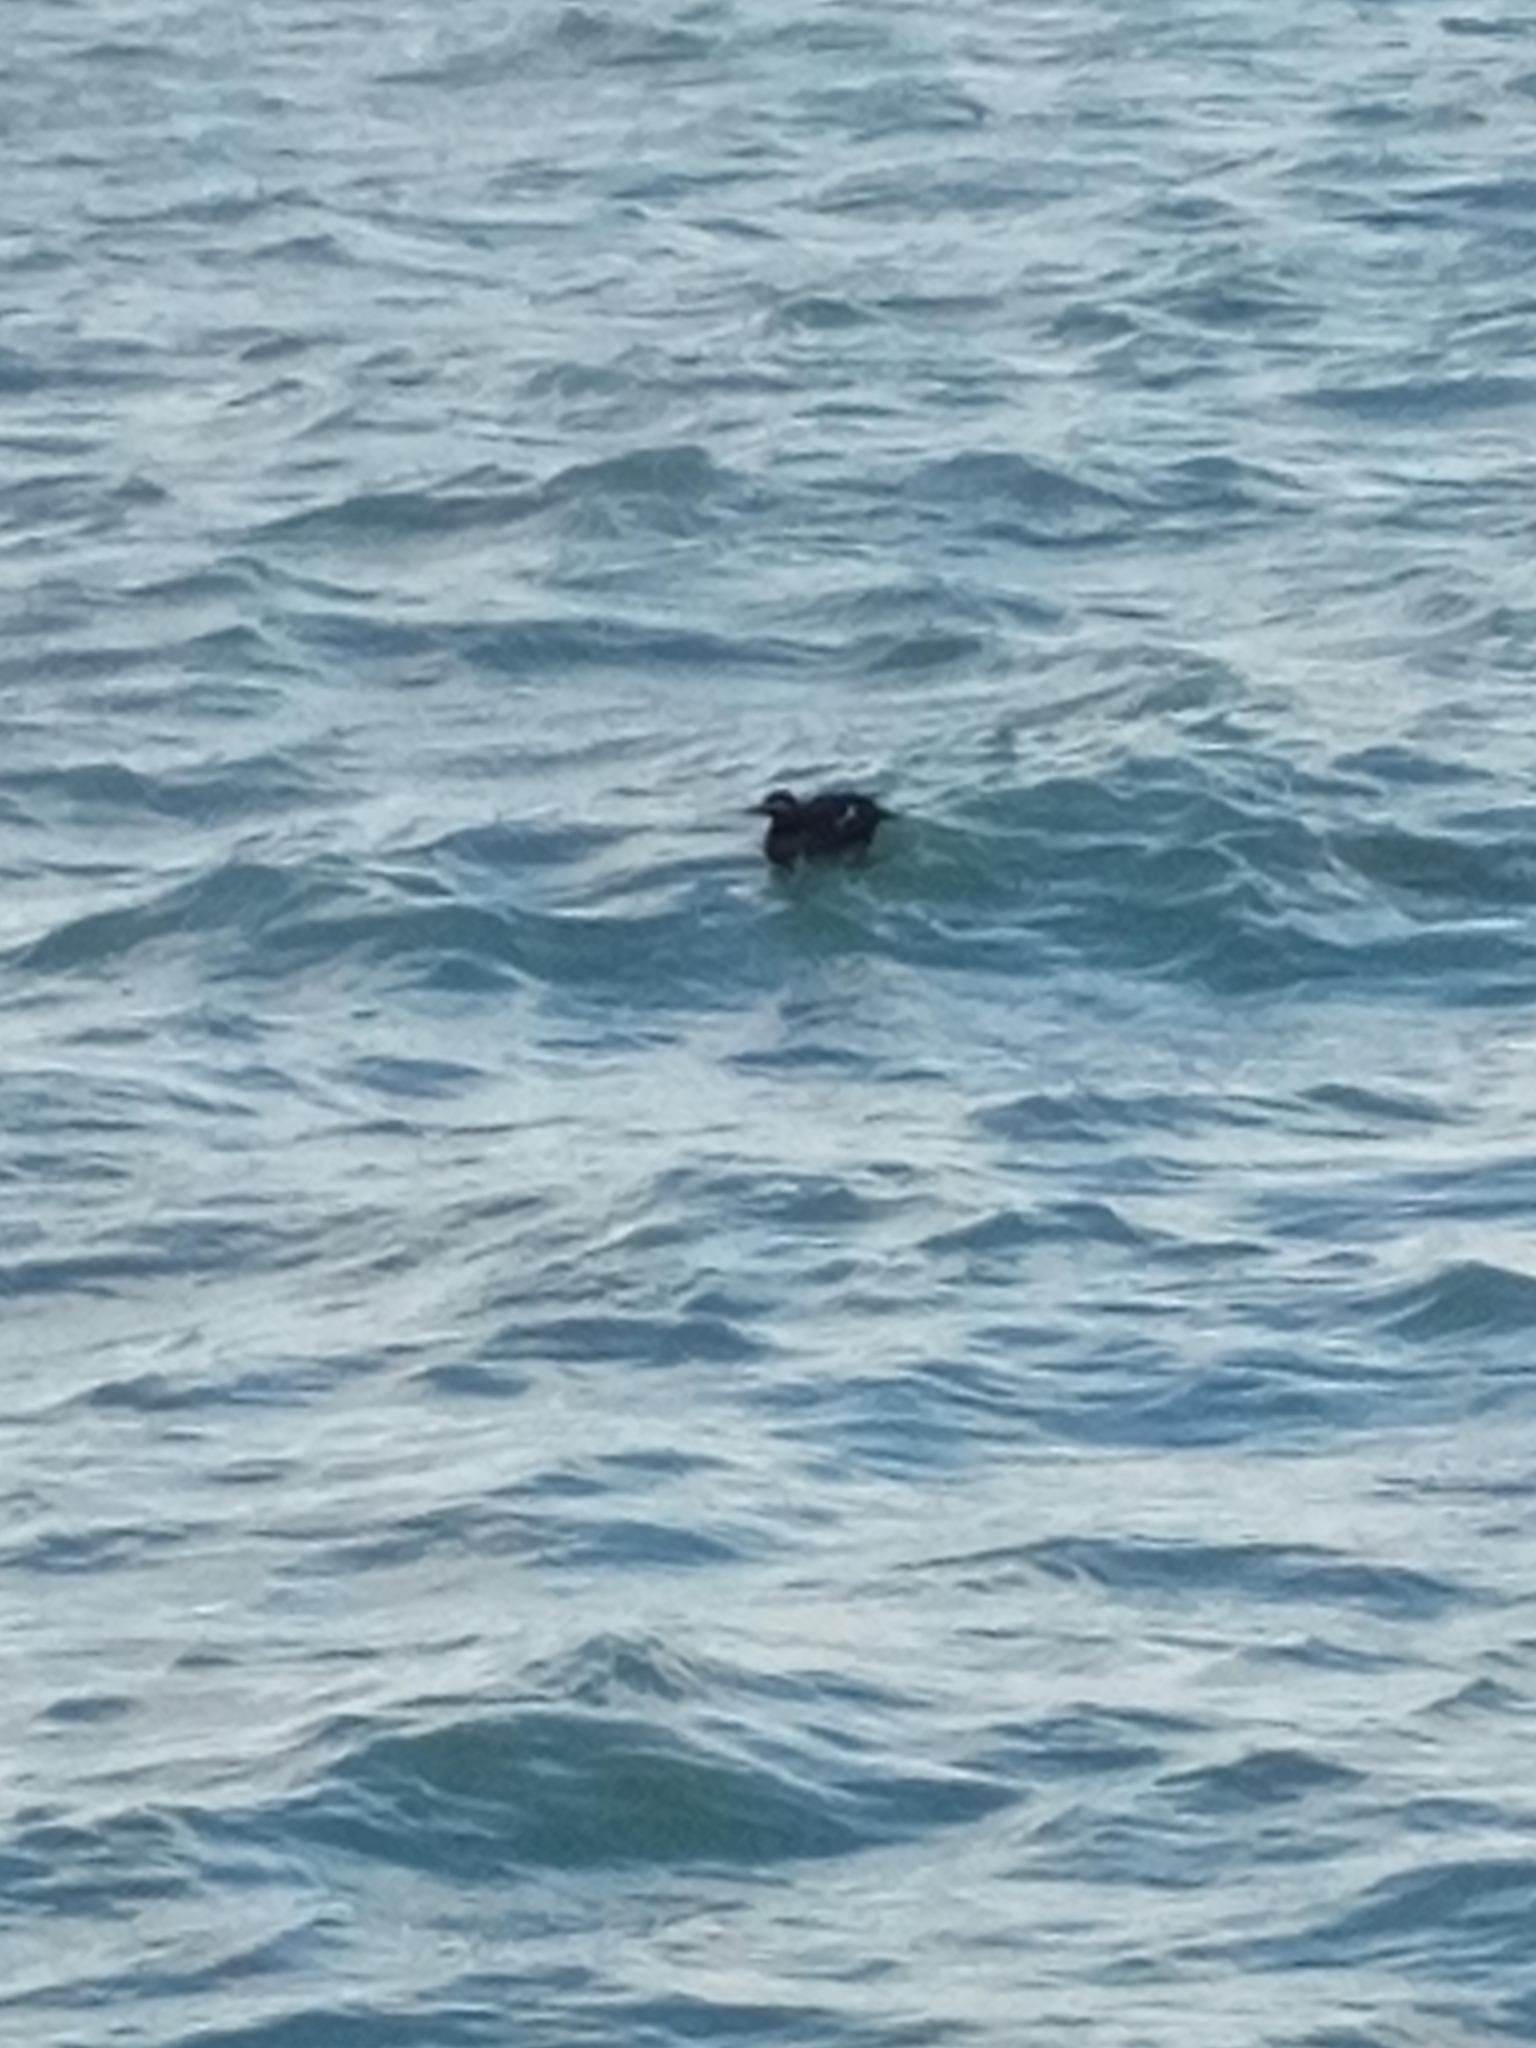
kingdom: Animalia
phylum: Chordata
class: Aves
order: Anseriformes
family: Anatidae
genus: Melanitta
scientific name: Melanitta fusca
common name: Velvet scoter
